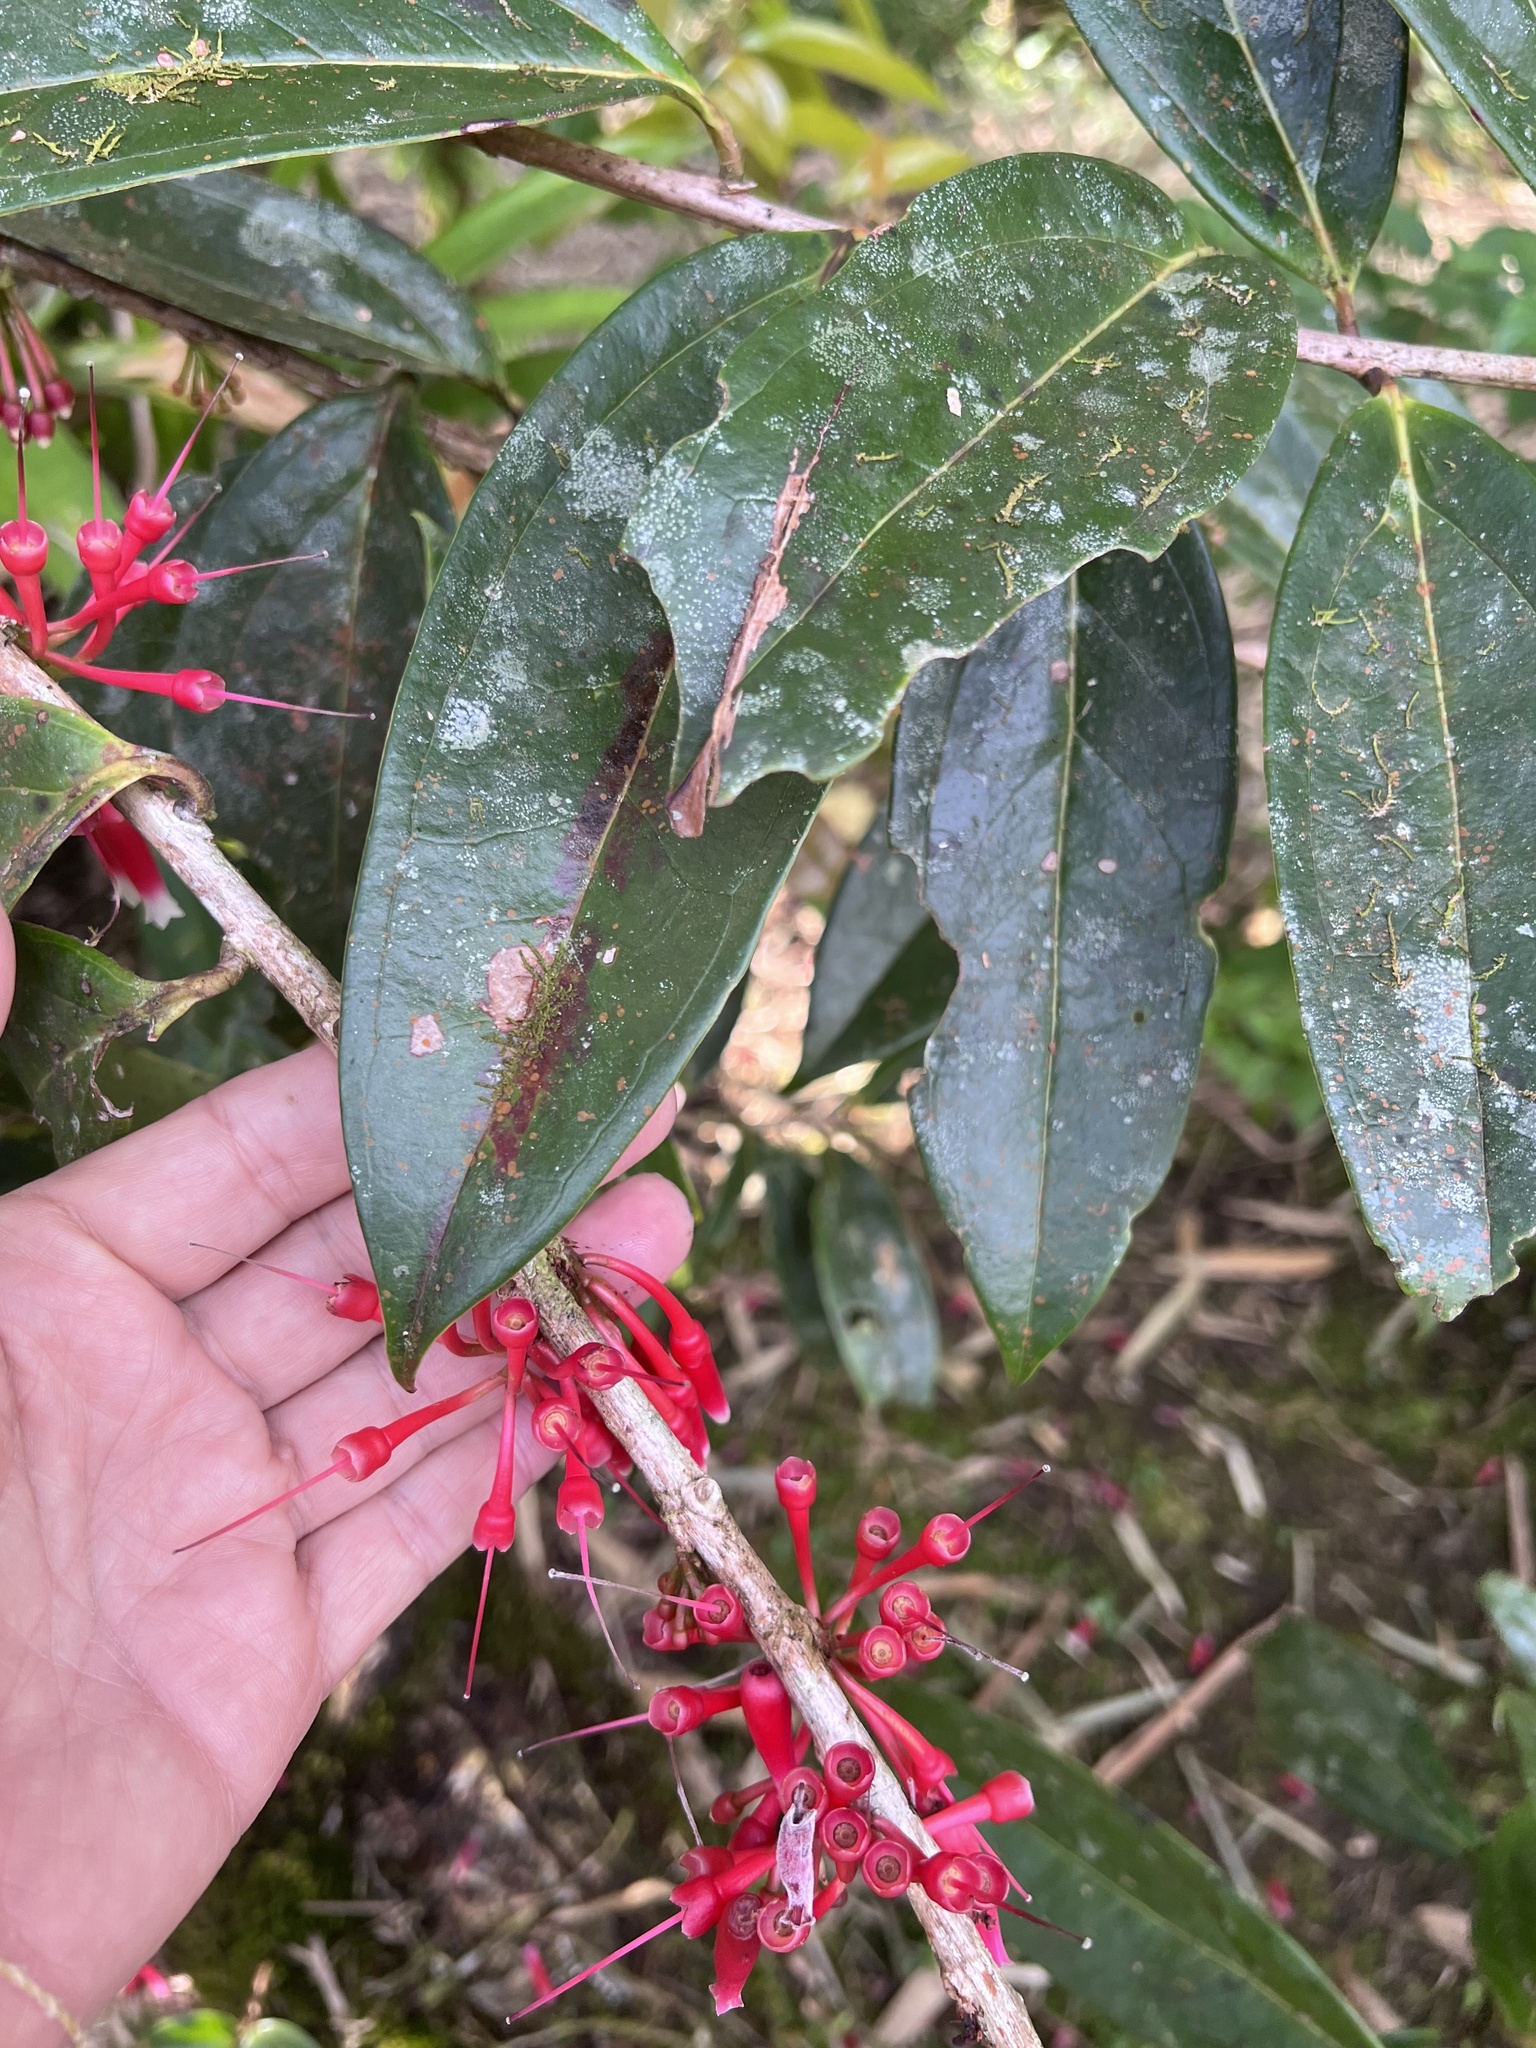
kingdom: Plantae
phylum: Tracheophyta
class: Magnoliopsida
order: Ericales
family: Ericaceae
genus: Satyria
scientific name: Satyria warszewiczii
